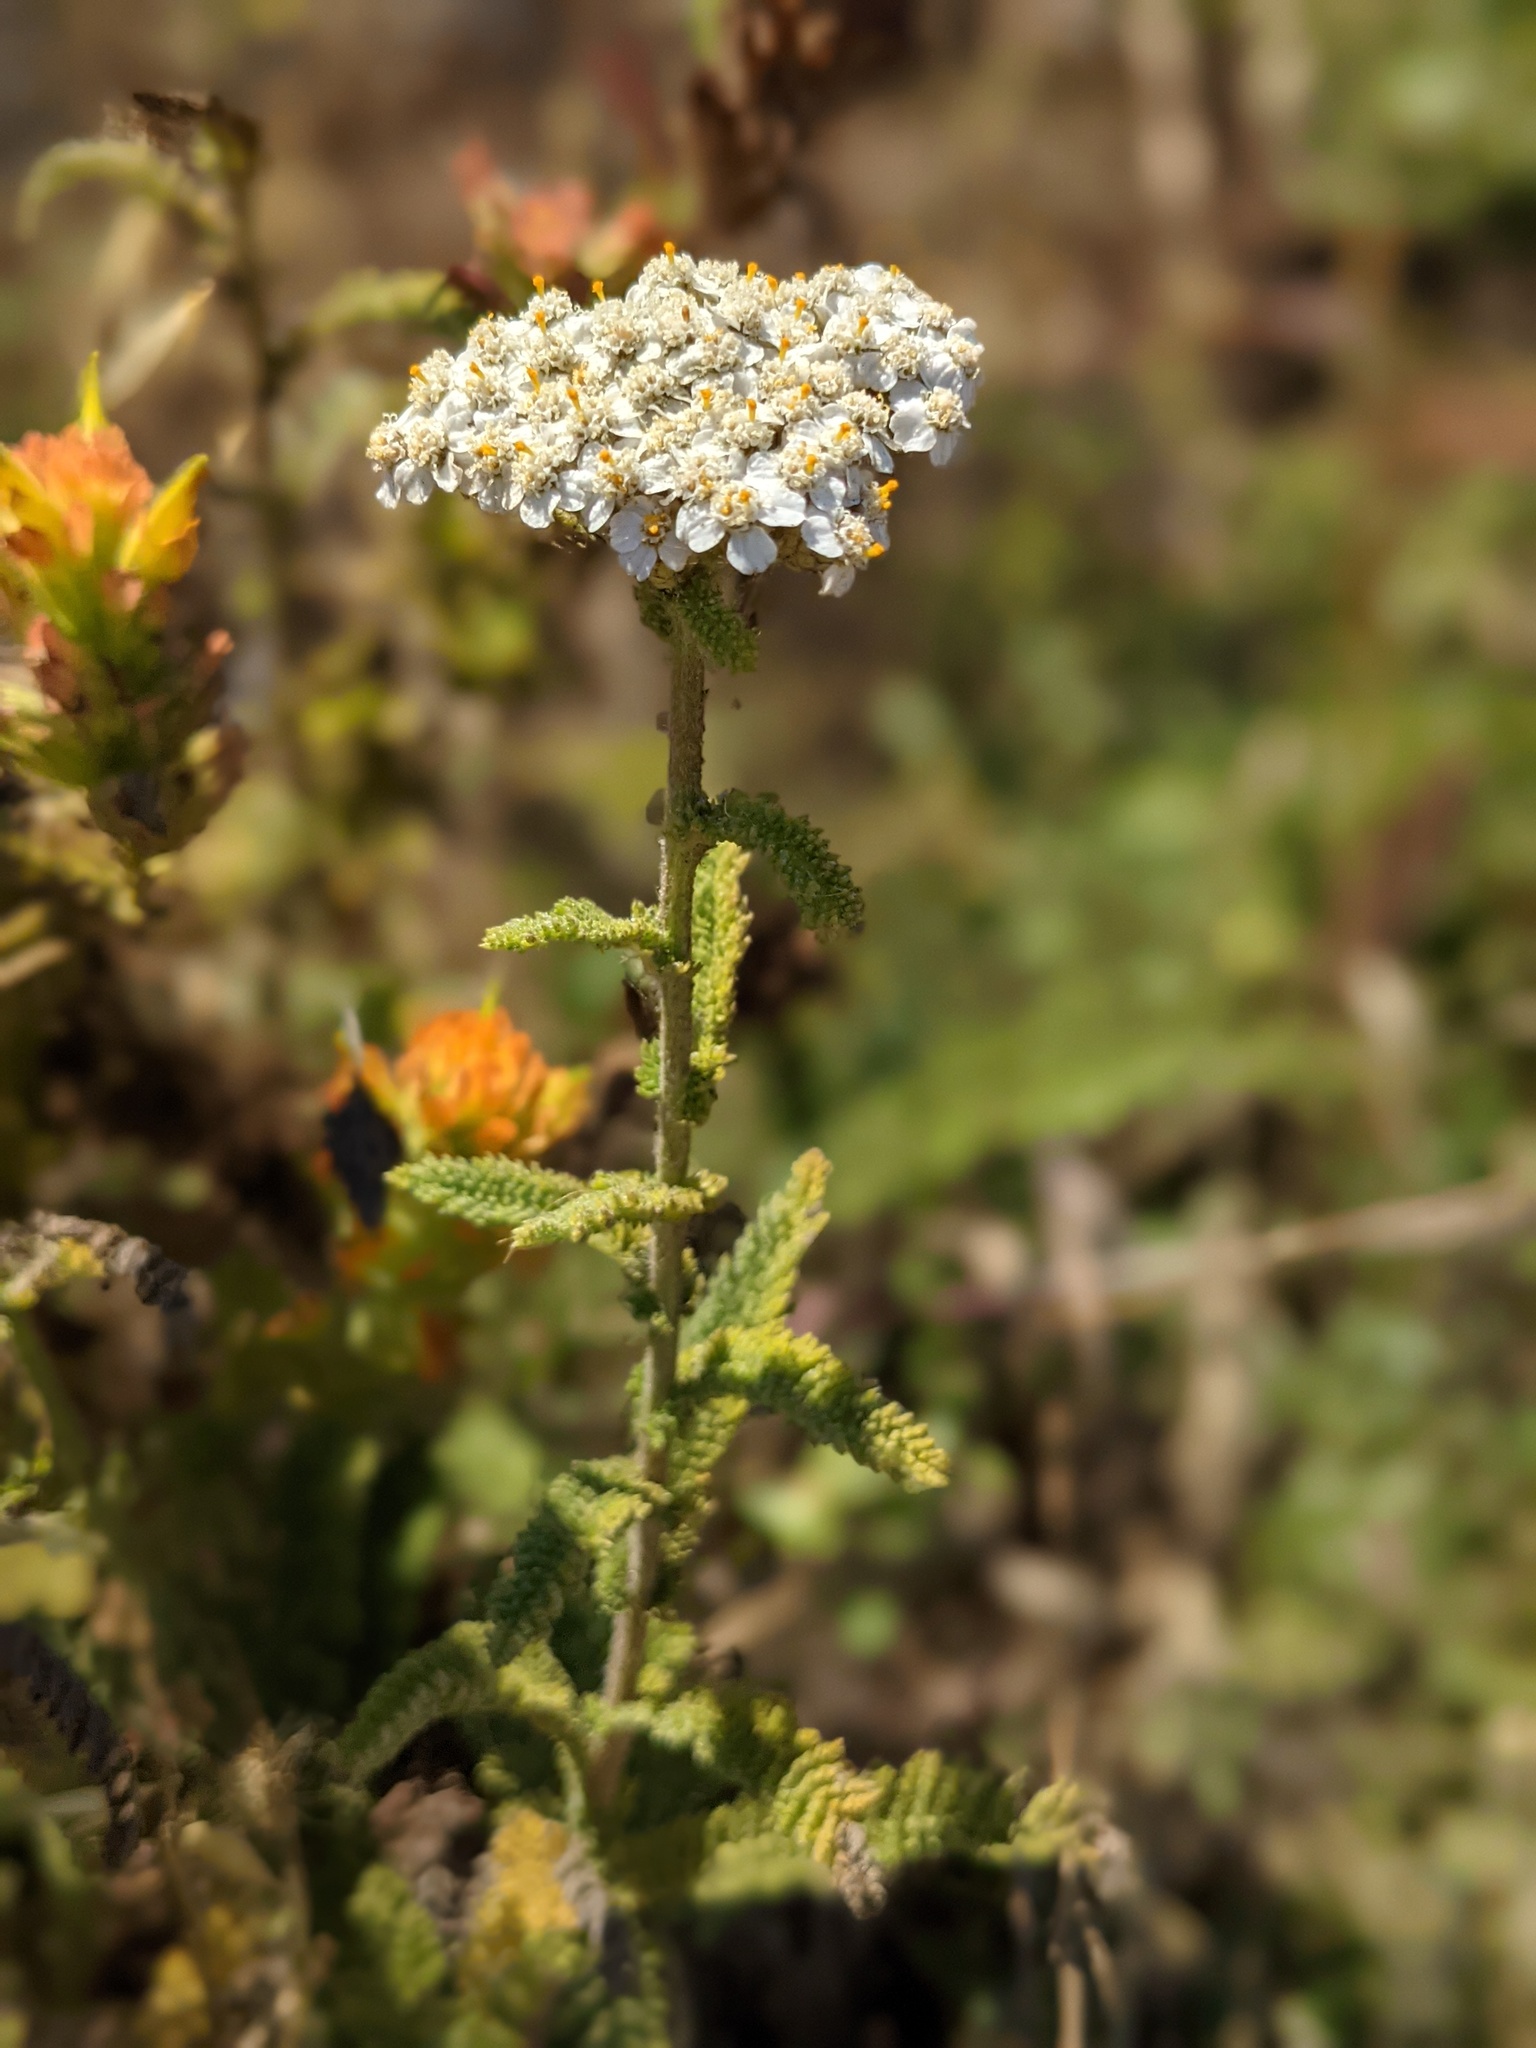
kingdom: Plantae
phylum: Tracheophyta
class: Magnoliopsida
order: Asterales
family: Asteraceae
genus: Achillea
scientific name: Achillea millefolium
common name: Yarrow
